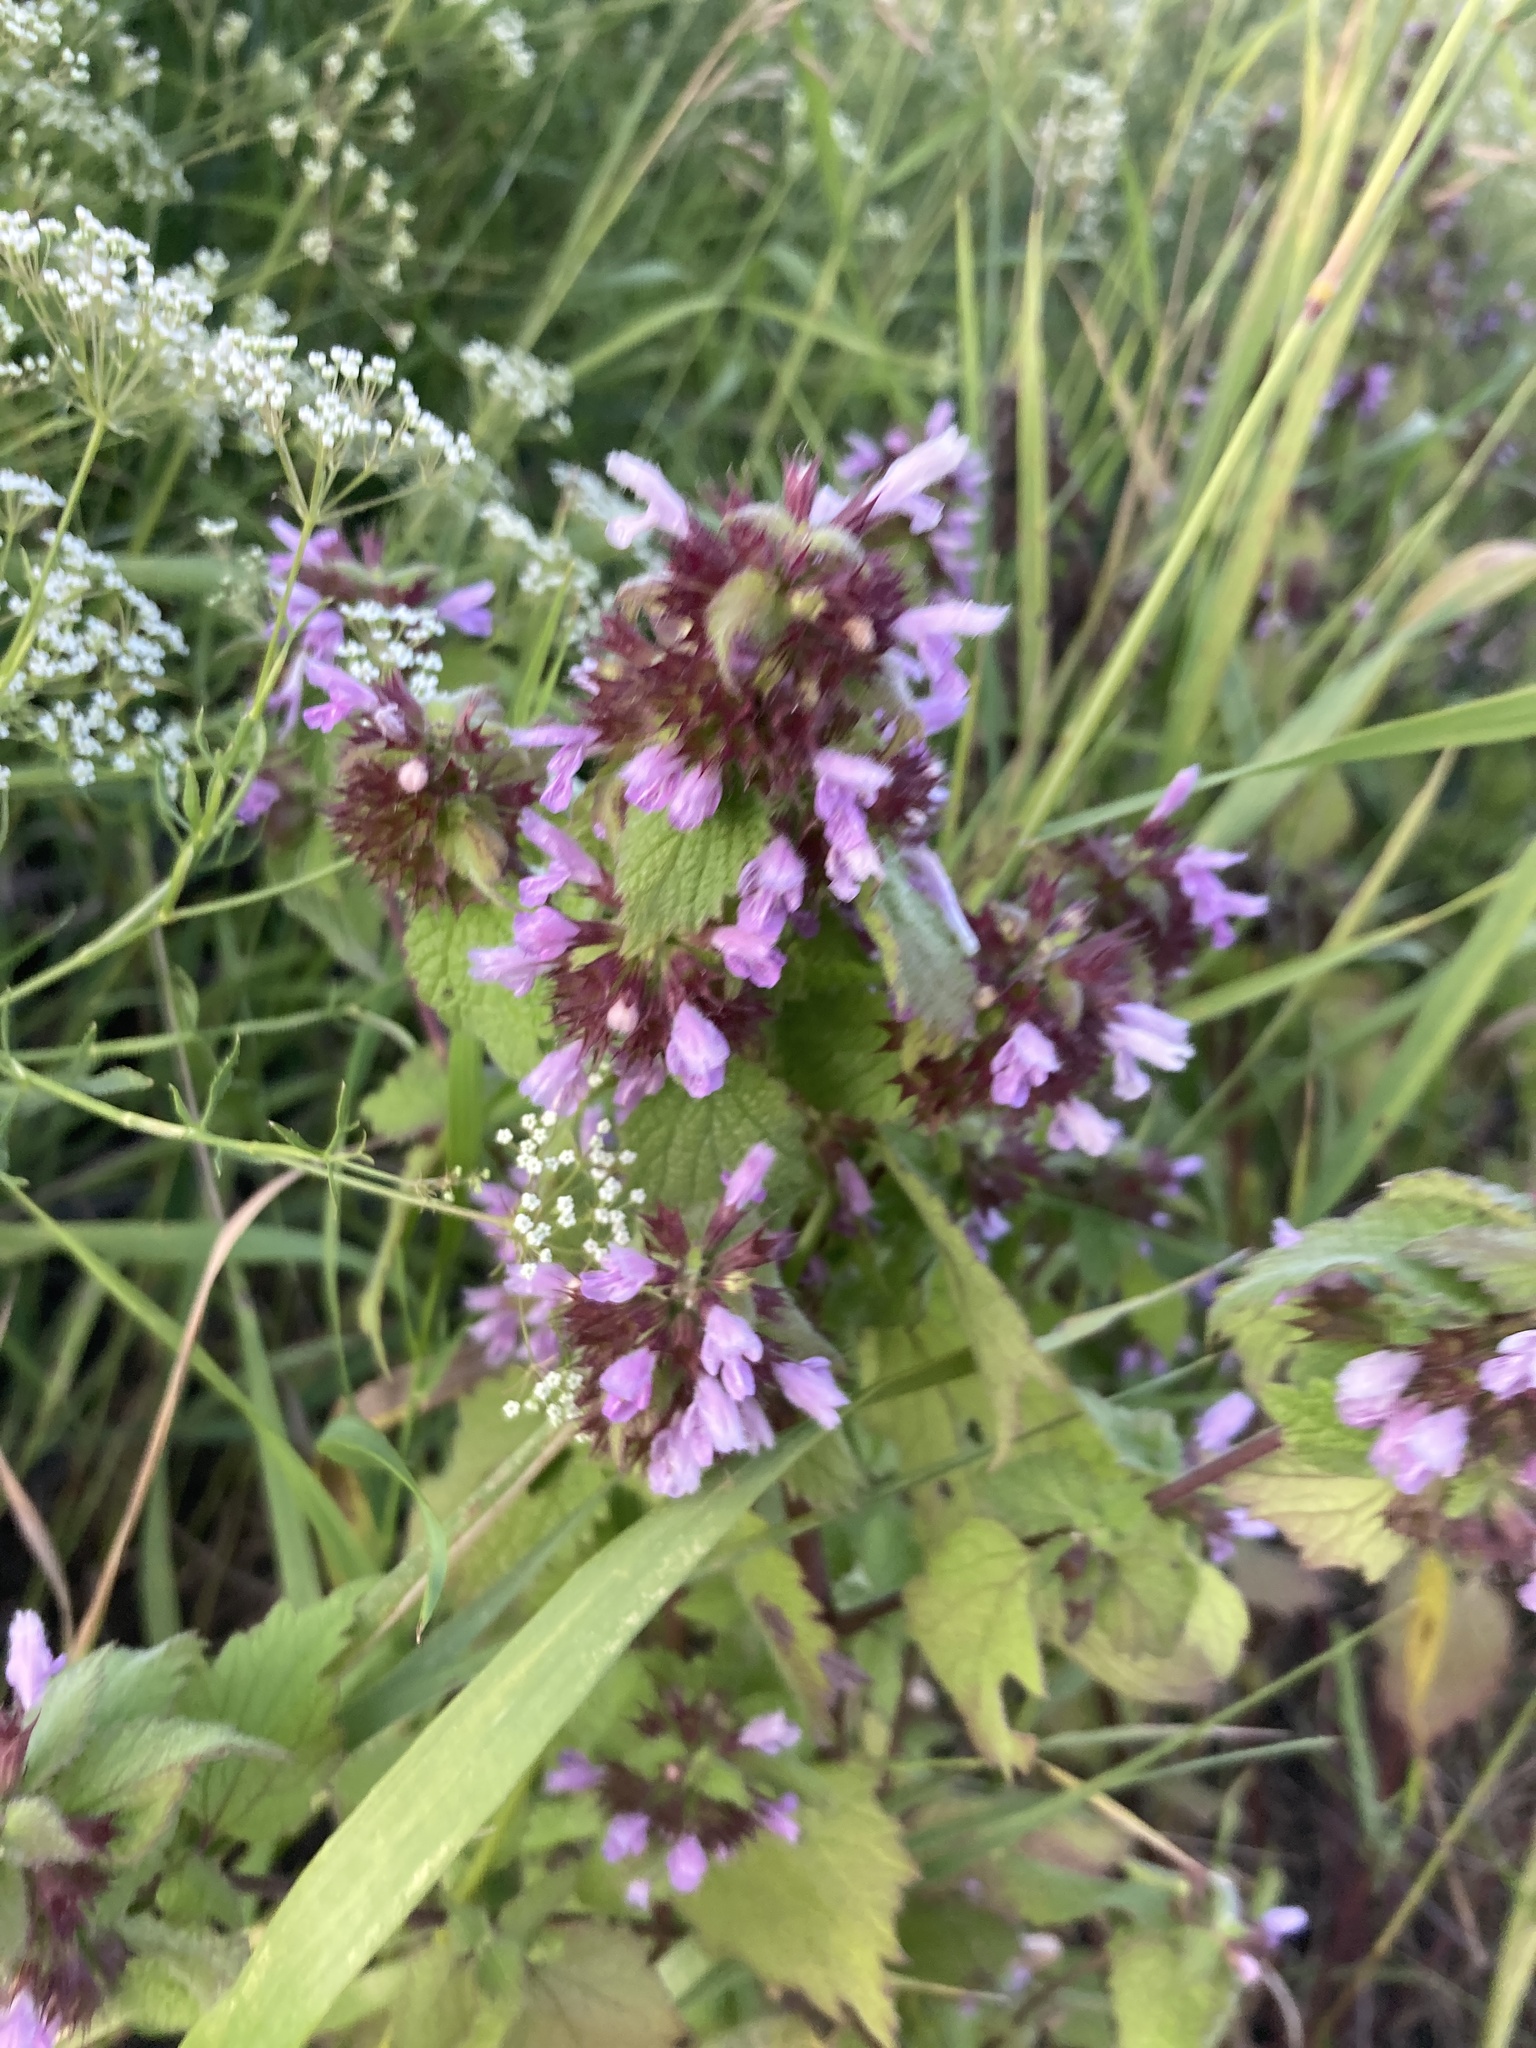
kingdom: Plantae
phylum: Tracheophyta
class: Magnoliopsida
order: Lamiales
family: Lamiaceae
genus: Ballota
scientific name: Ballota nigra
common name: Black horehound
